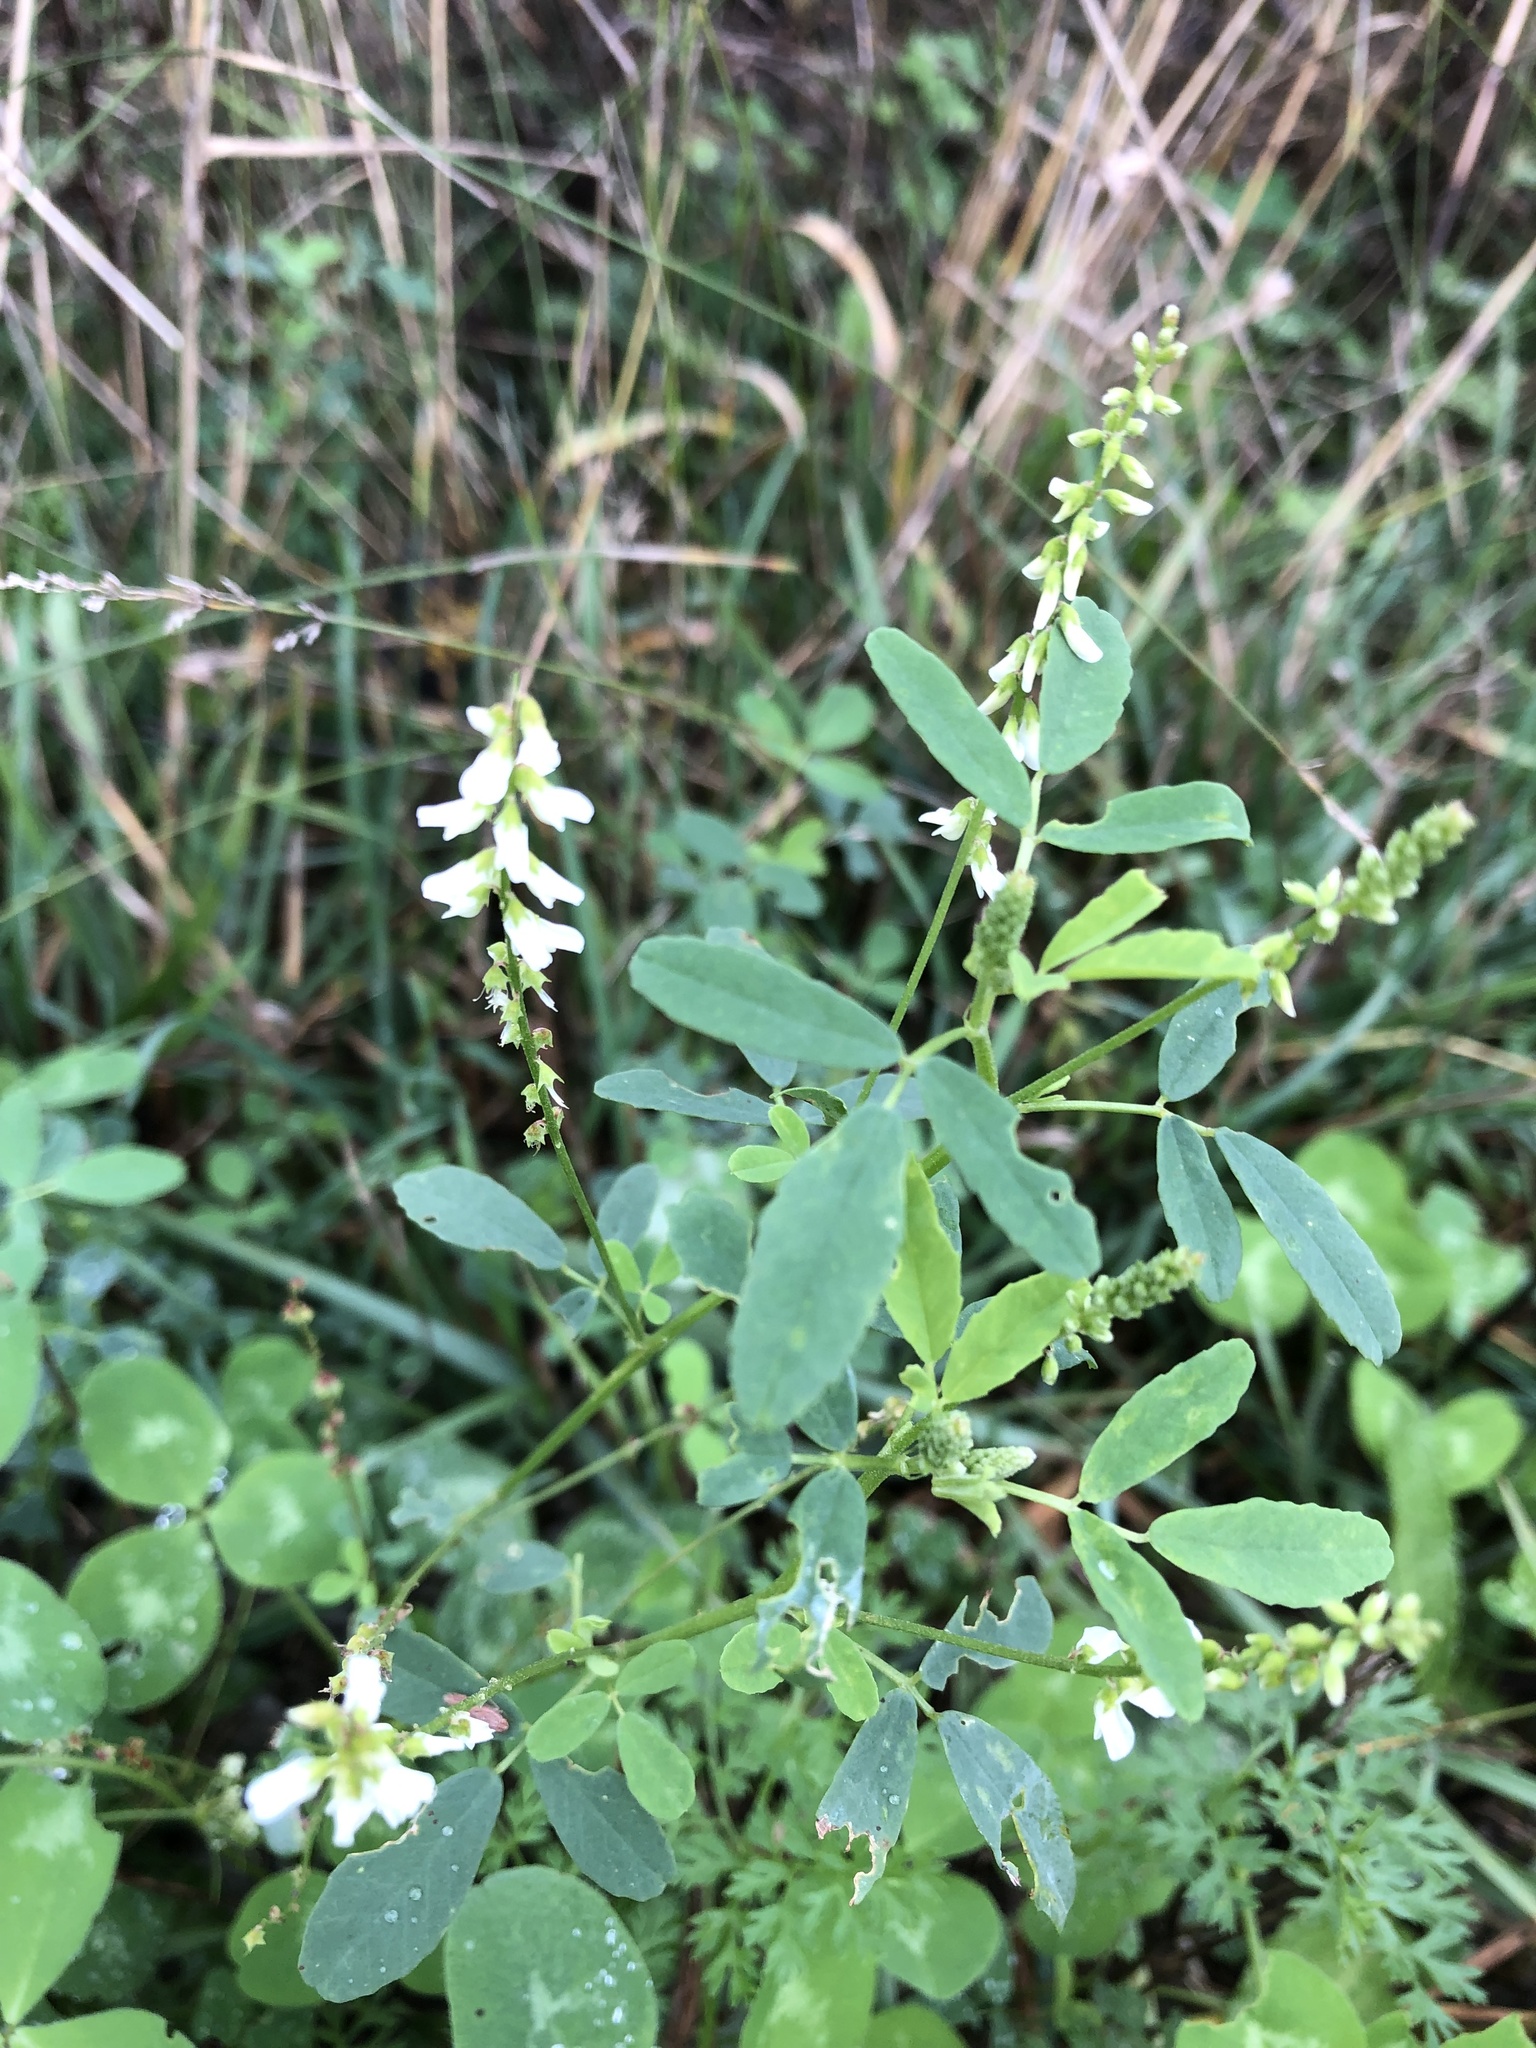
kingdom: Plantae
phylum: Tracheophyta
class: Magnoliopsida
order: Fabales
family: Fabaceae
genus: Melilotus
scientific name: Melilotus albus
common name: White melilot
